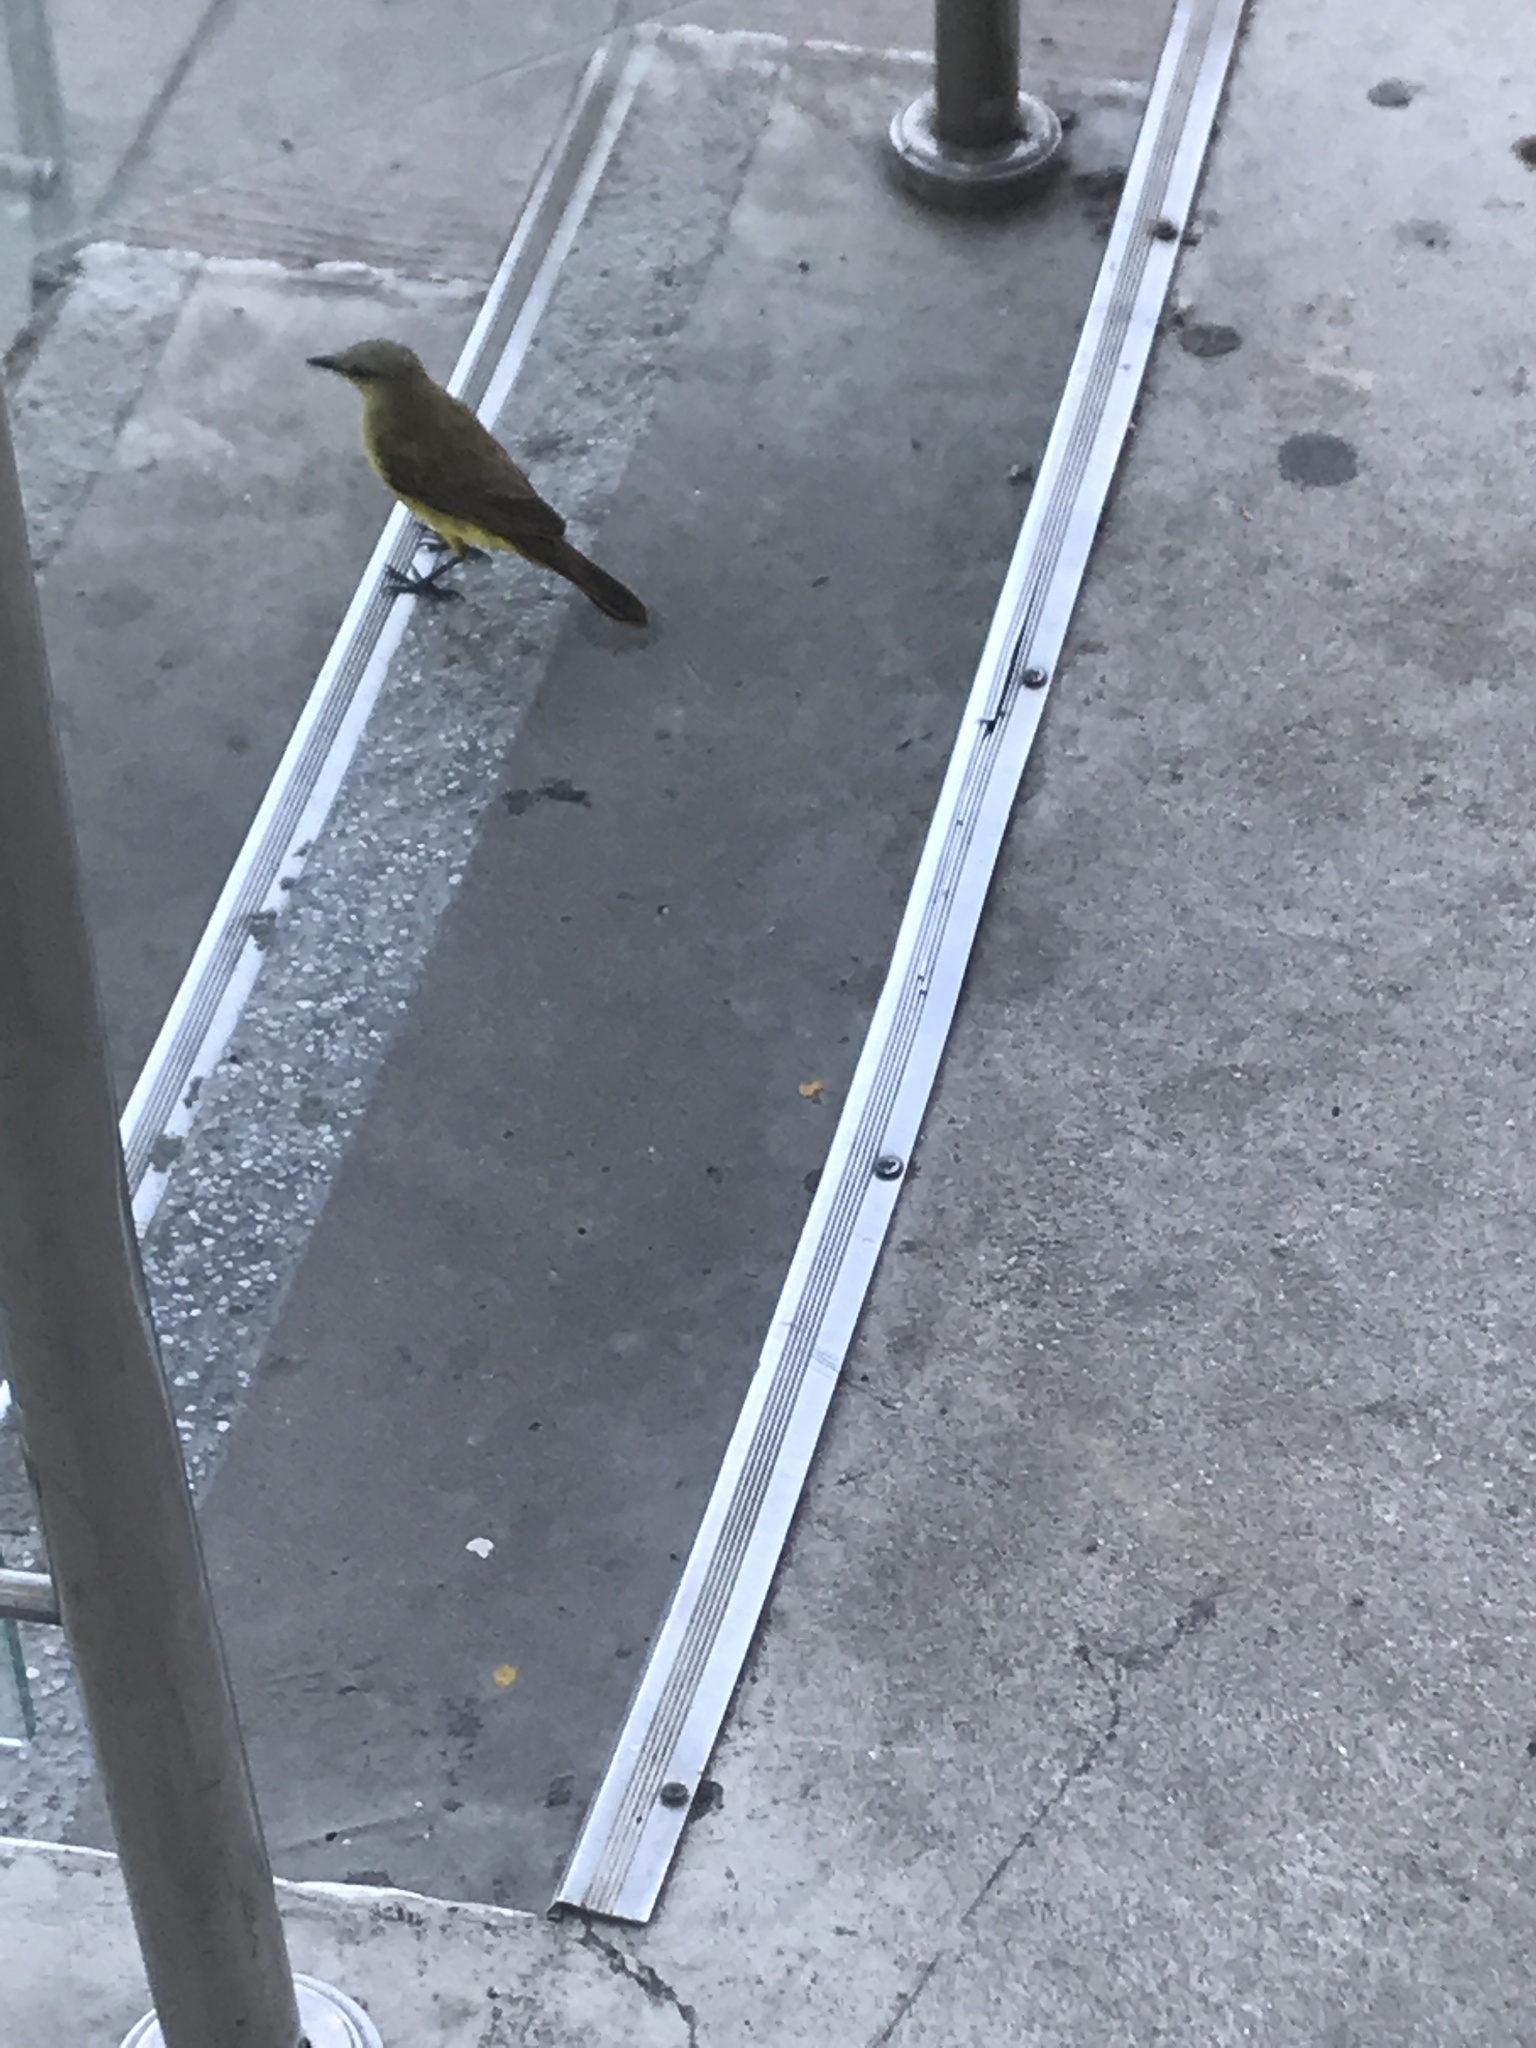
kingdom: Animalia
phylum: Chordata
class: Aves
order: Passeriformes
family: Tyrannidae
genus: Machetornis
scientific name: Machetornis rixosa
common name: Cattle tyrant
